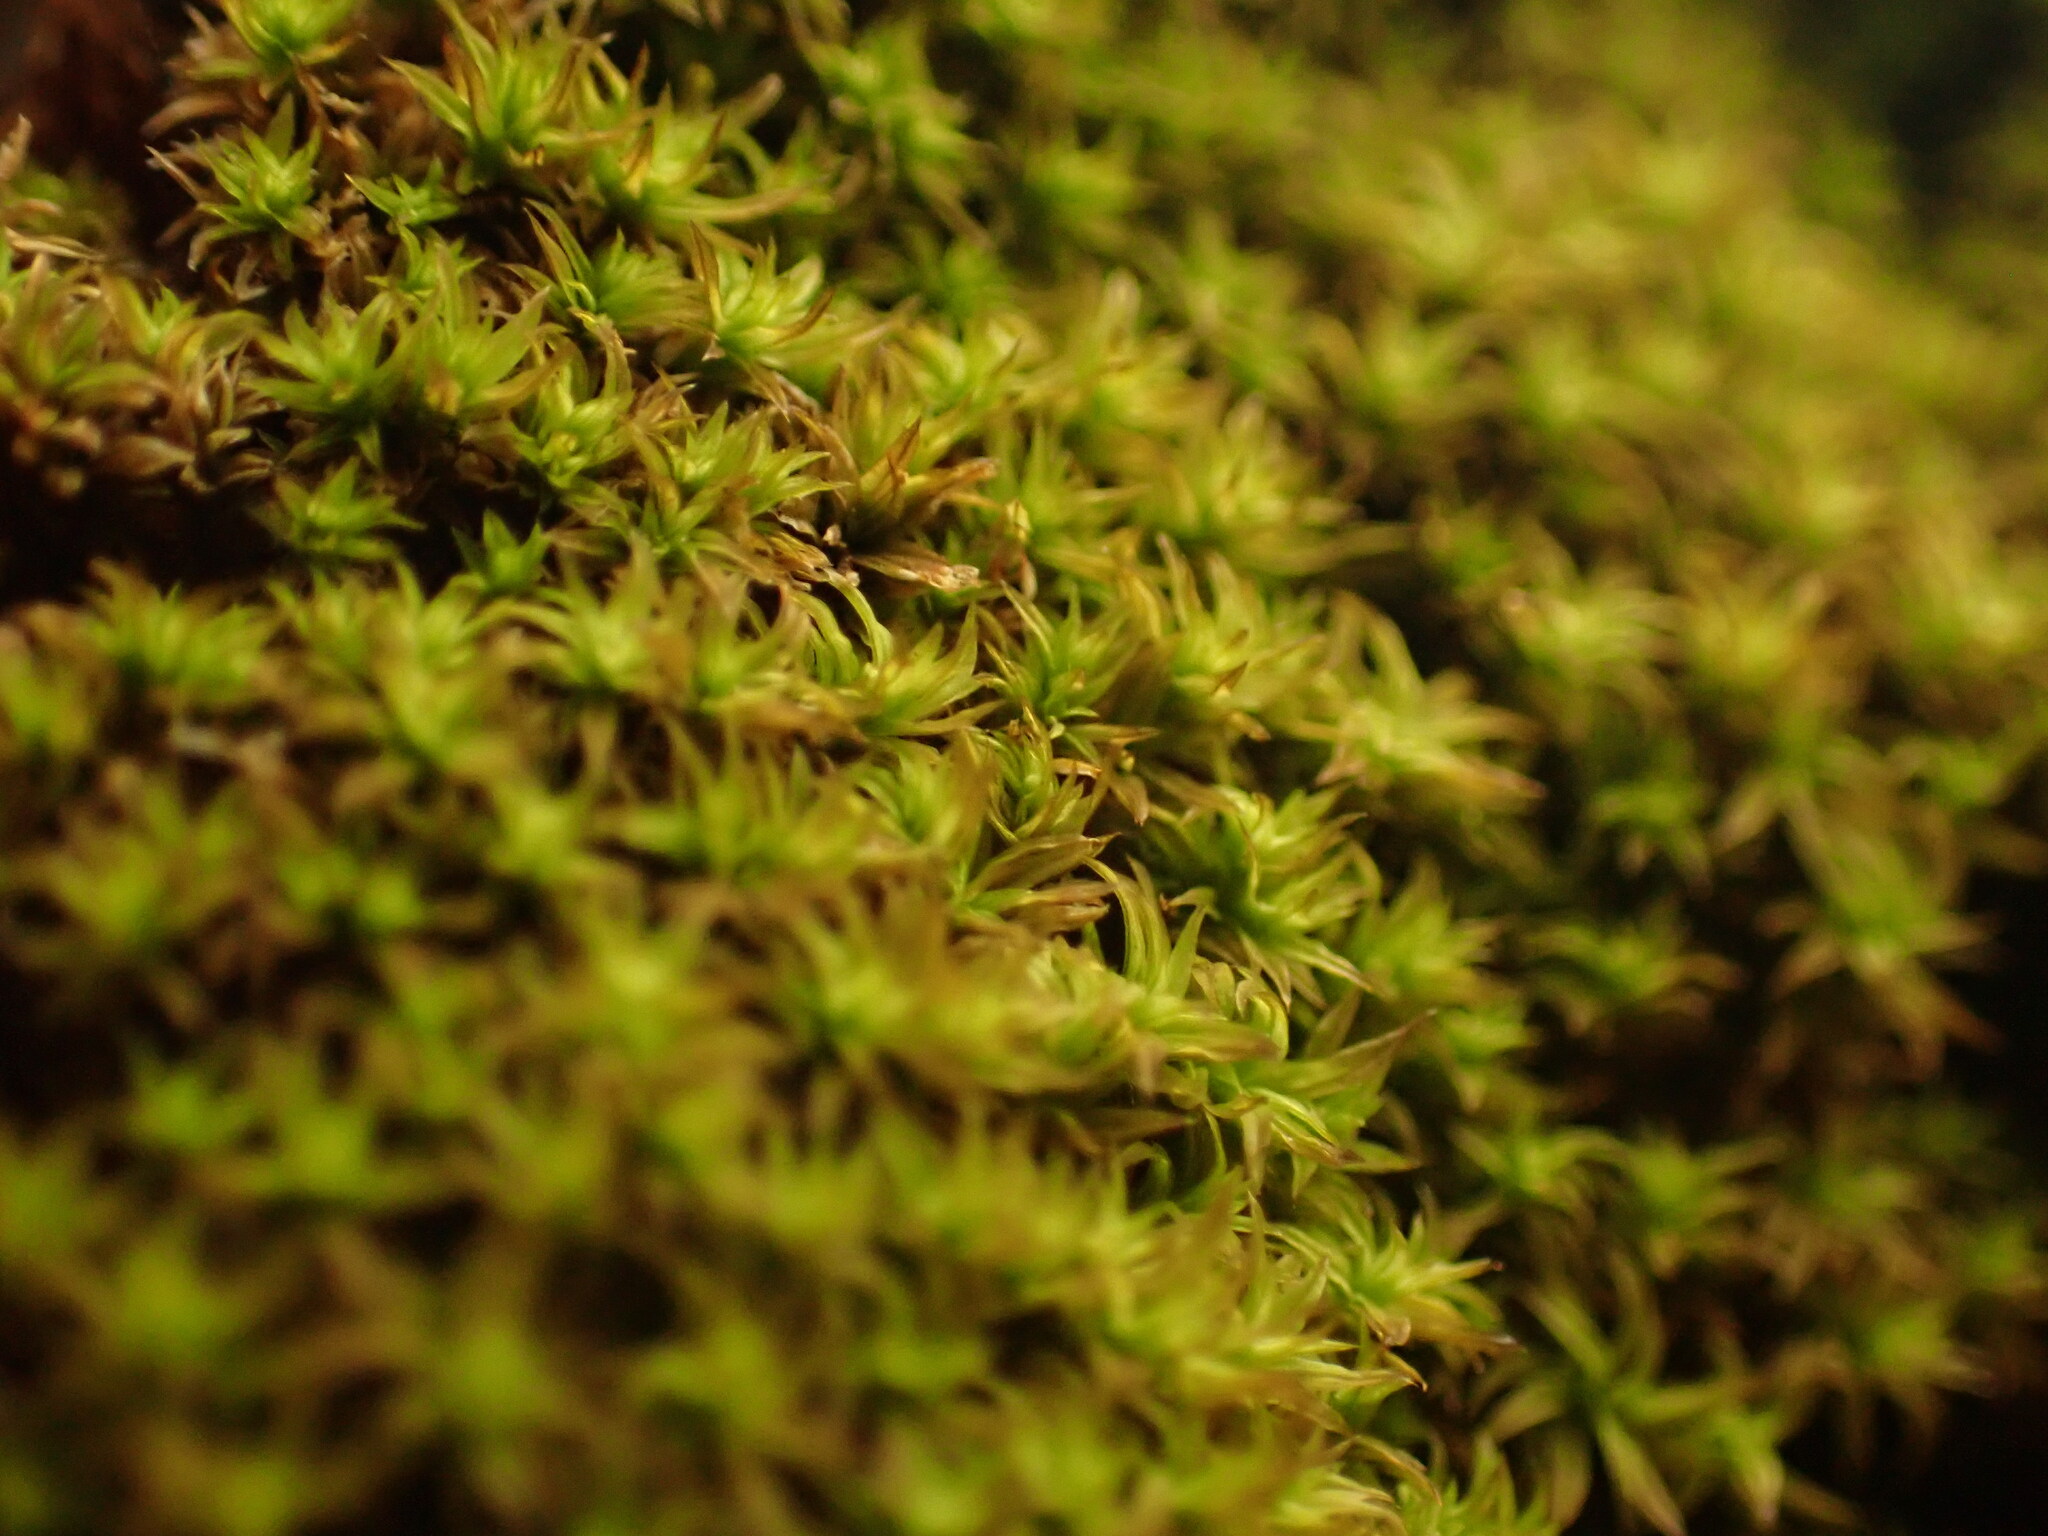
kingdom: Plantae
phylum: Bryophyta
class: Bryopsida
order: Orthotrichales
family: Orthotrichaceae
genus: Zygodon
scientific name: Zygodon viridissimus
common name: Green yoke moss
